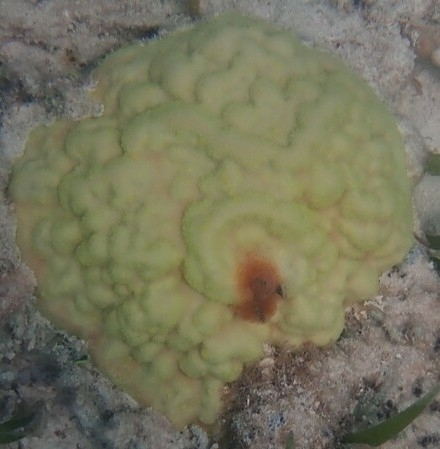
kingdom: Animalia
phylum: Cnidaria
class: Anthozoa
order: Scleractinia
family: Poritidae
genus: Porites
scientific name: Porites astreoides
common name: Mustard hill coral
